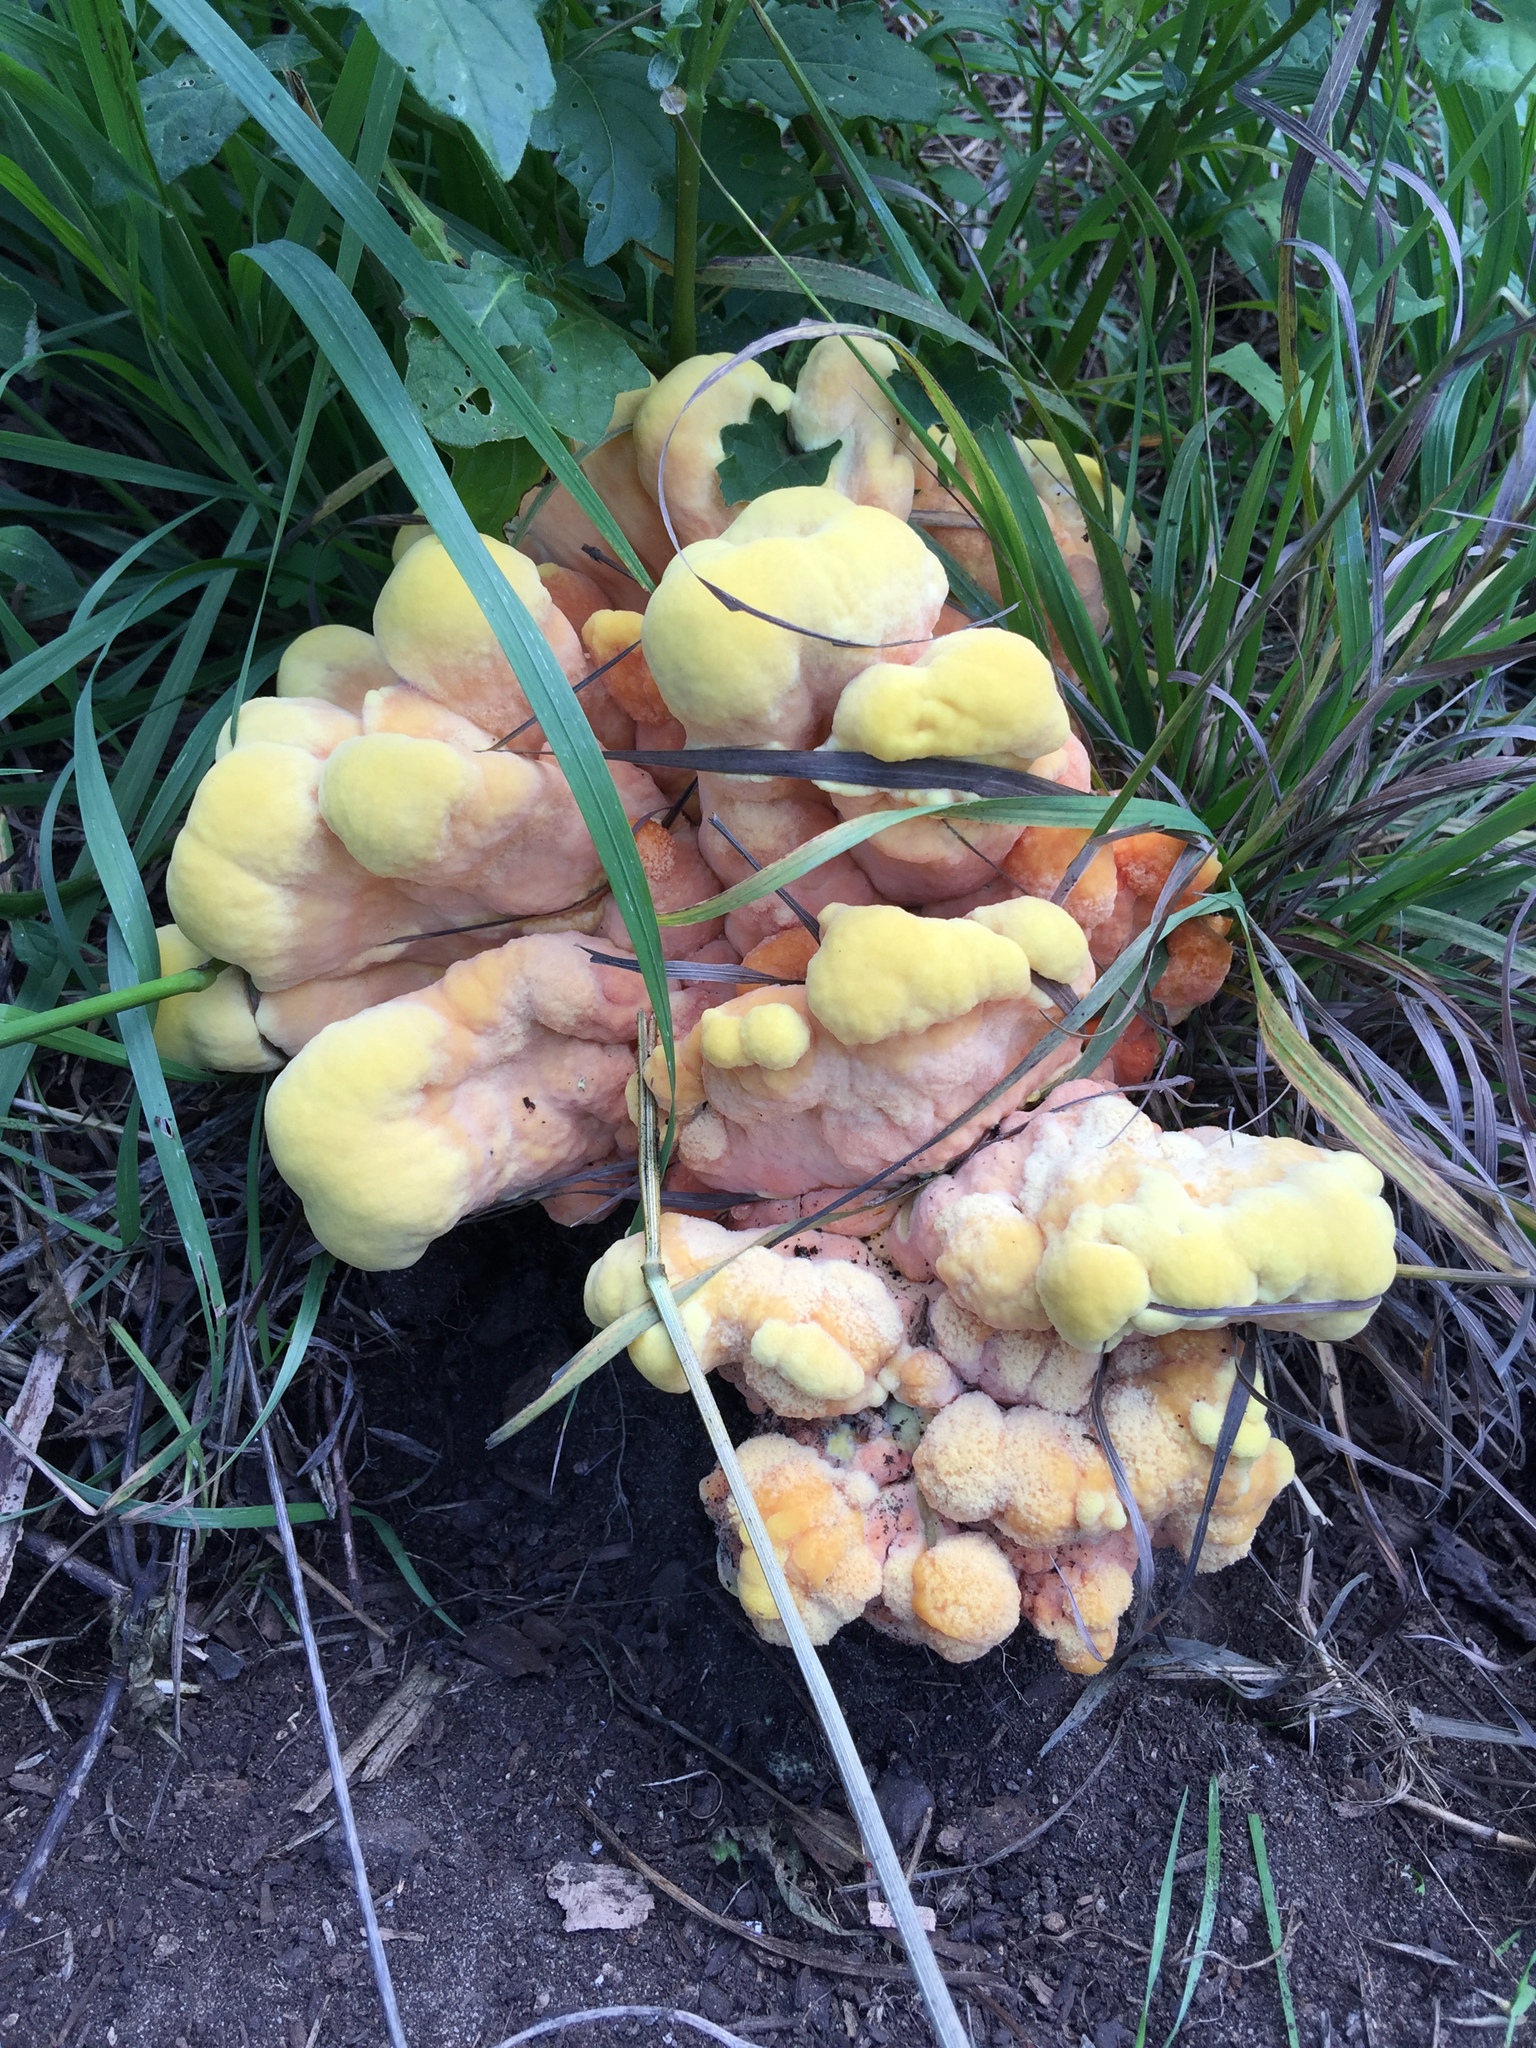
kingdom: Fungi
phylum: Basidiomycota
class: Agaricomycetes
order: Polyporales
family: Laetiporaceae
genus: Laetiporus
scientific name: Laetiporus gilbertsonii
